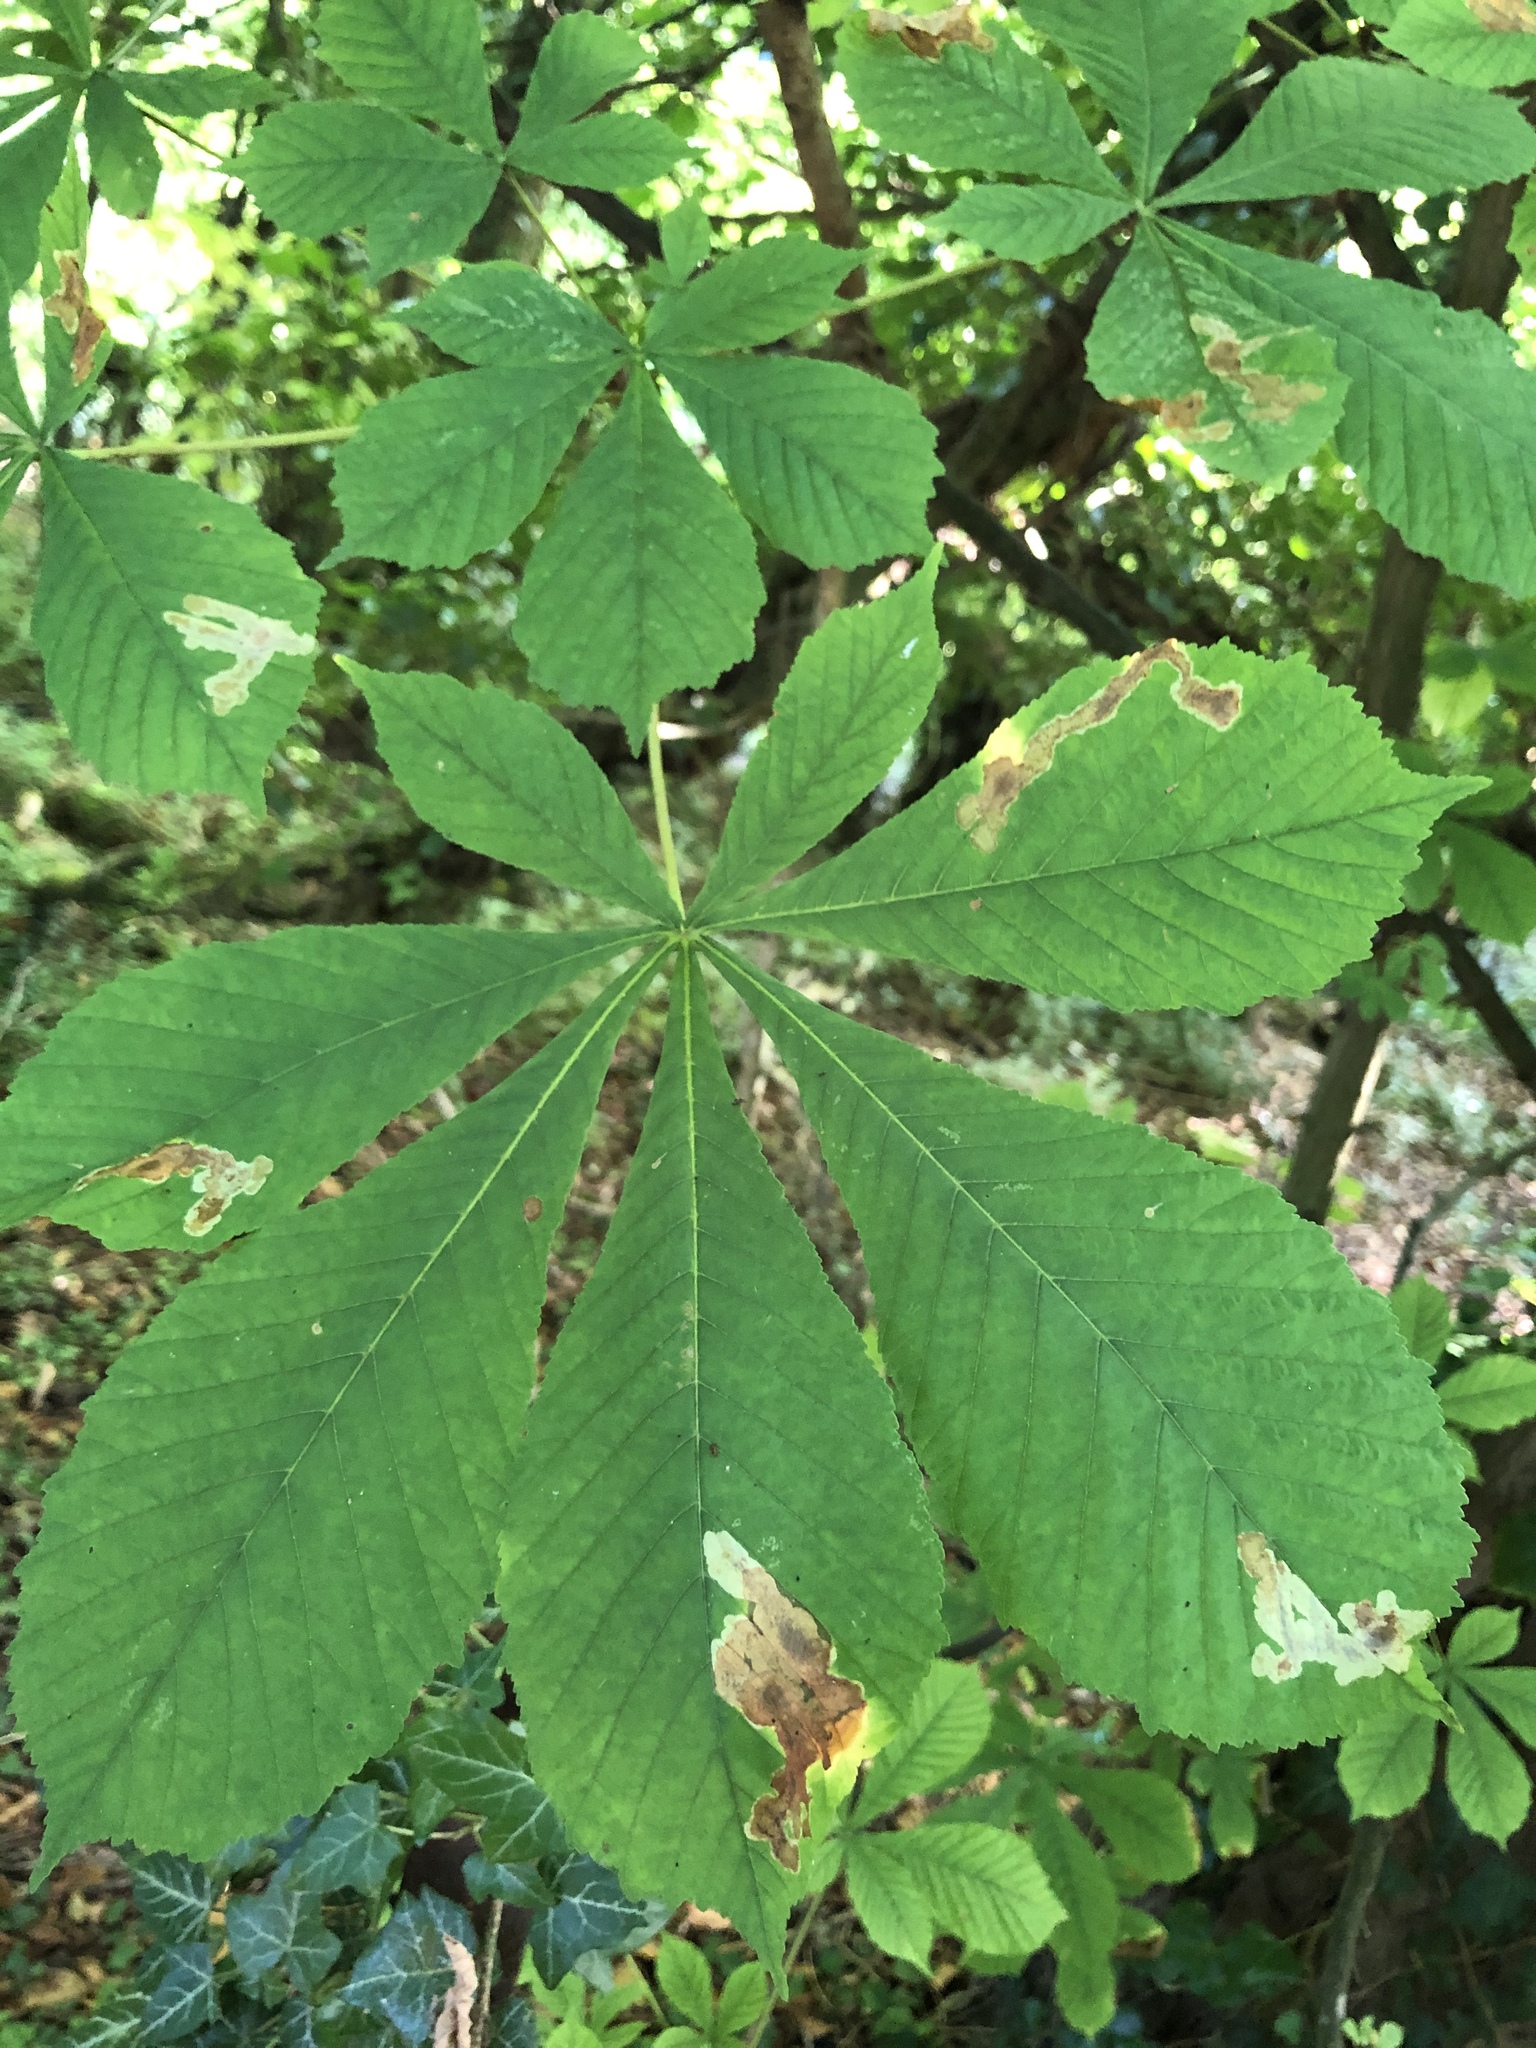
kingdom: Plantae
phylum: Tracheophyta
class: Magnoliopsida
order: Sapindales
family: Sapindaceae
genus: Aesculus
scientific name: Aesculus hippocastanum
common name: Horse-chestnut
